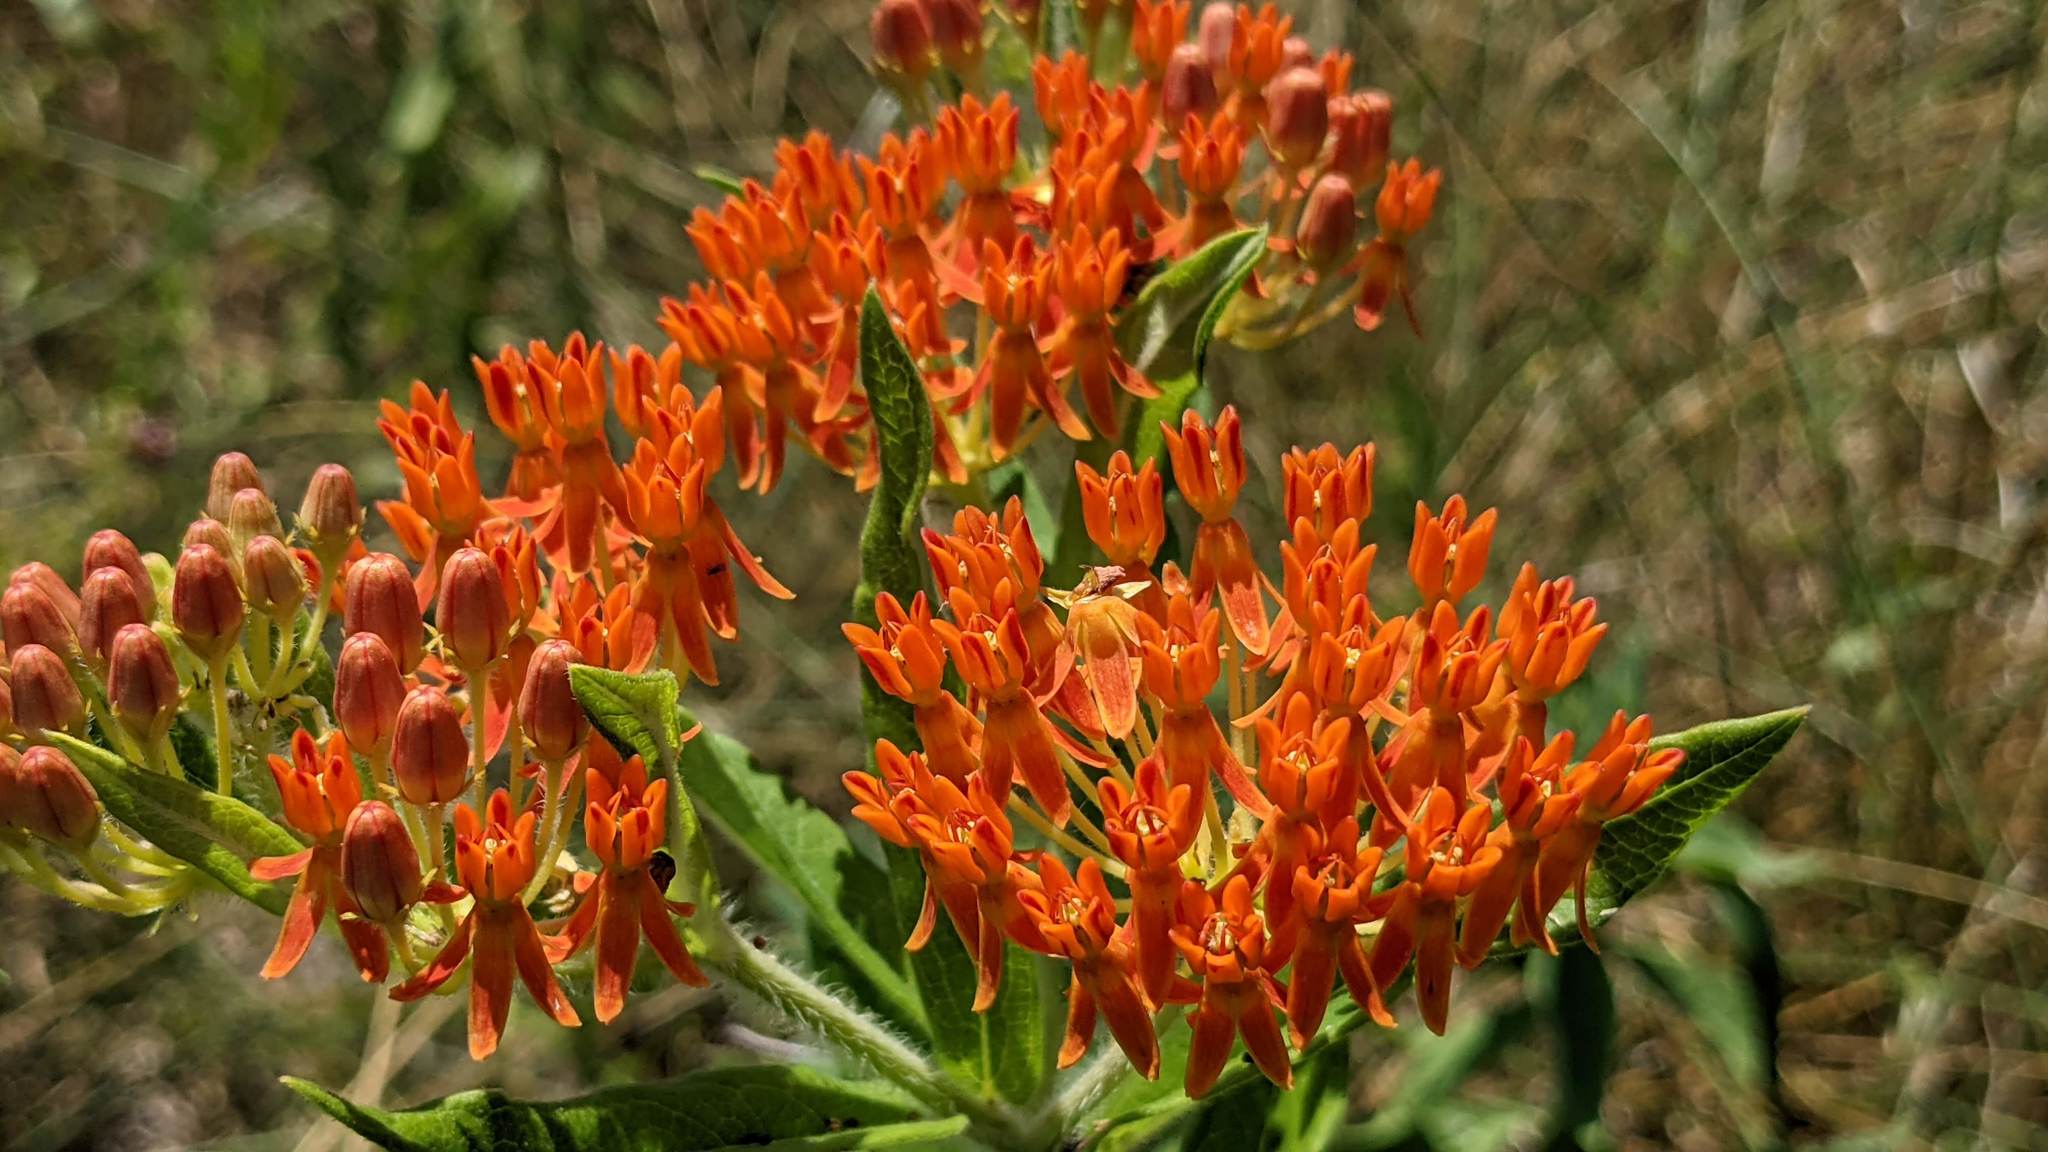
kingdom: Plantae
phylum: Tracheophyta
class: Magnoliopsida
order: Gentianales
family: Apocynaceae
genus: Asclepias
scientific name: Asclepias tuberosa
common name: Butterfly milkweed
